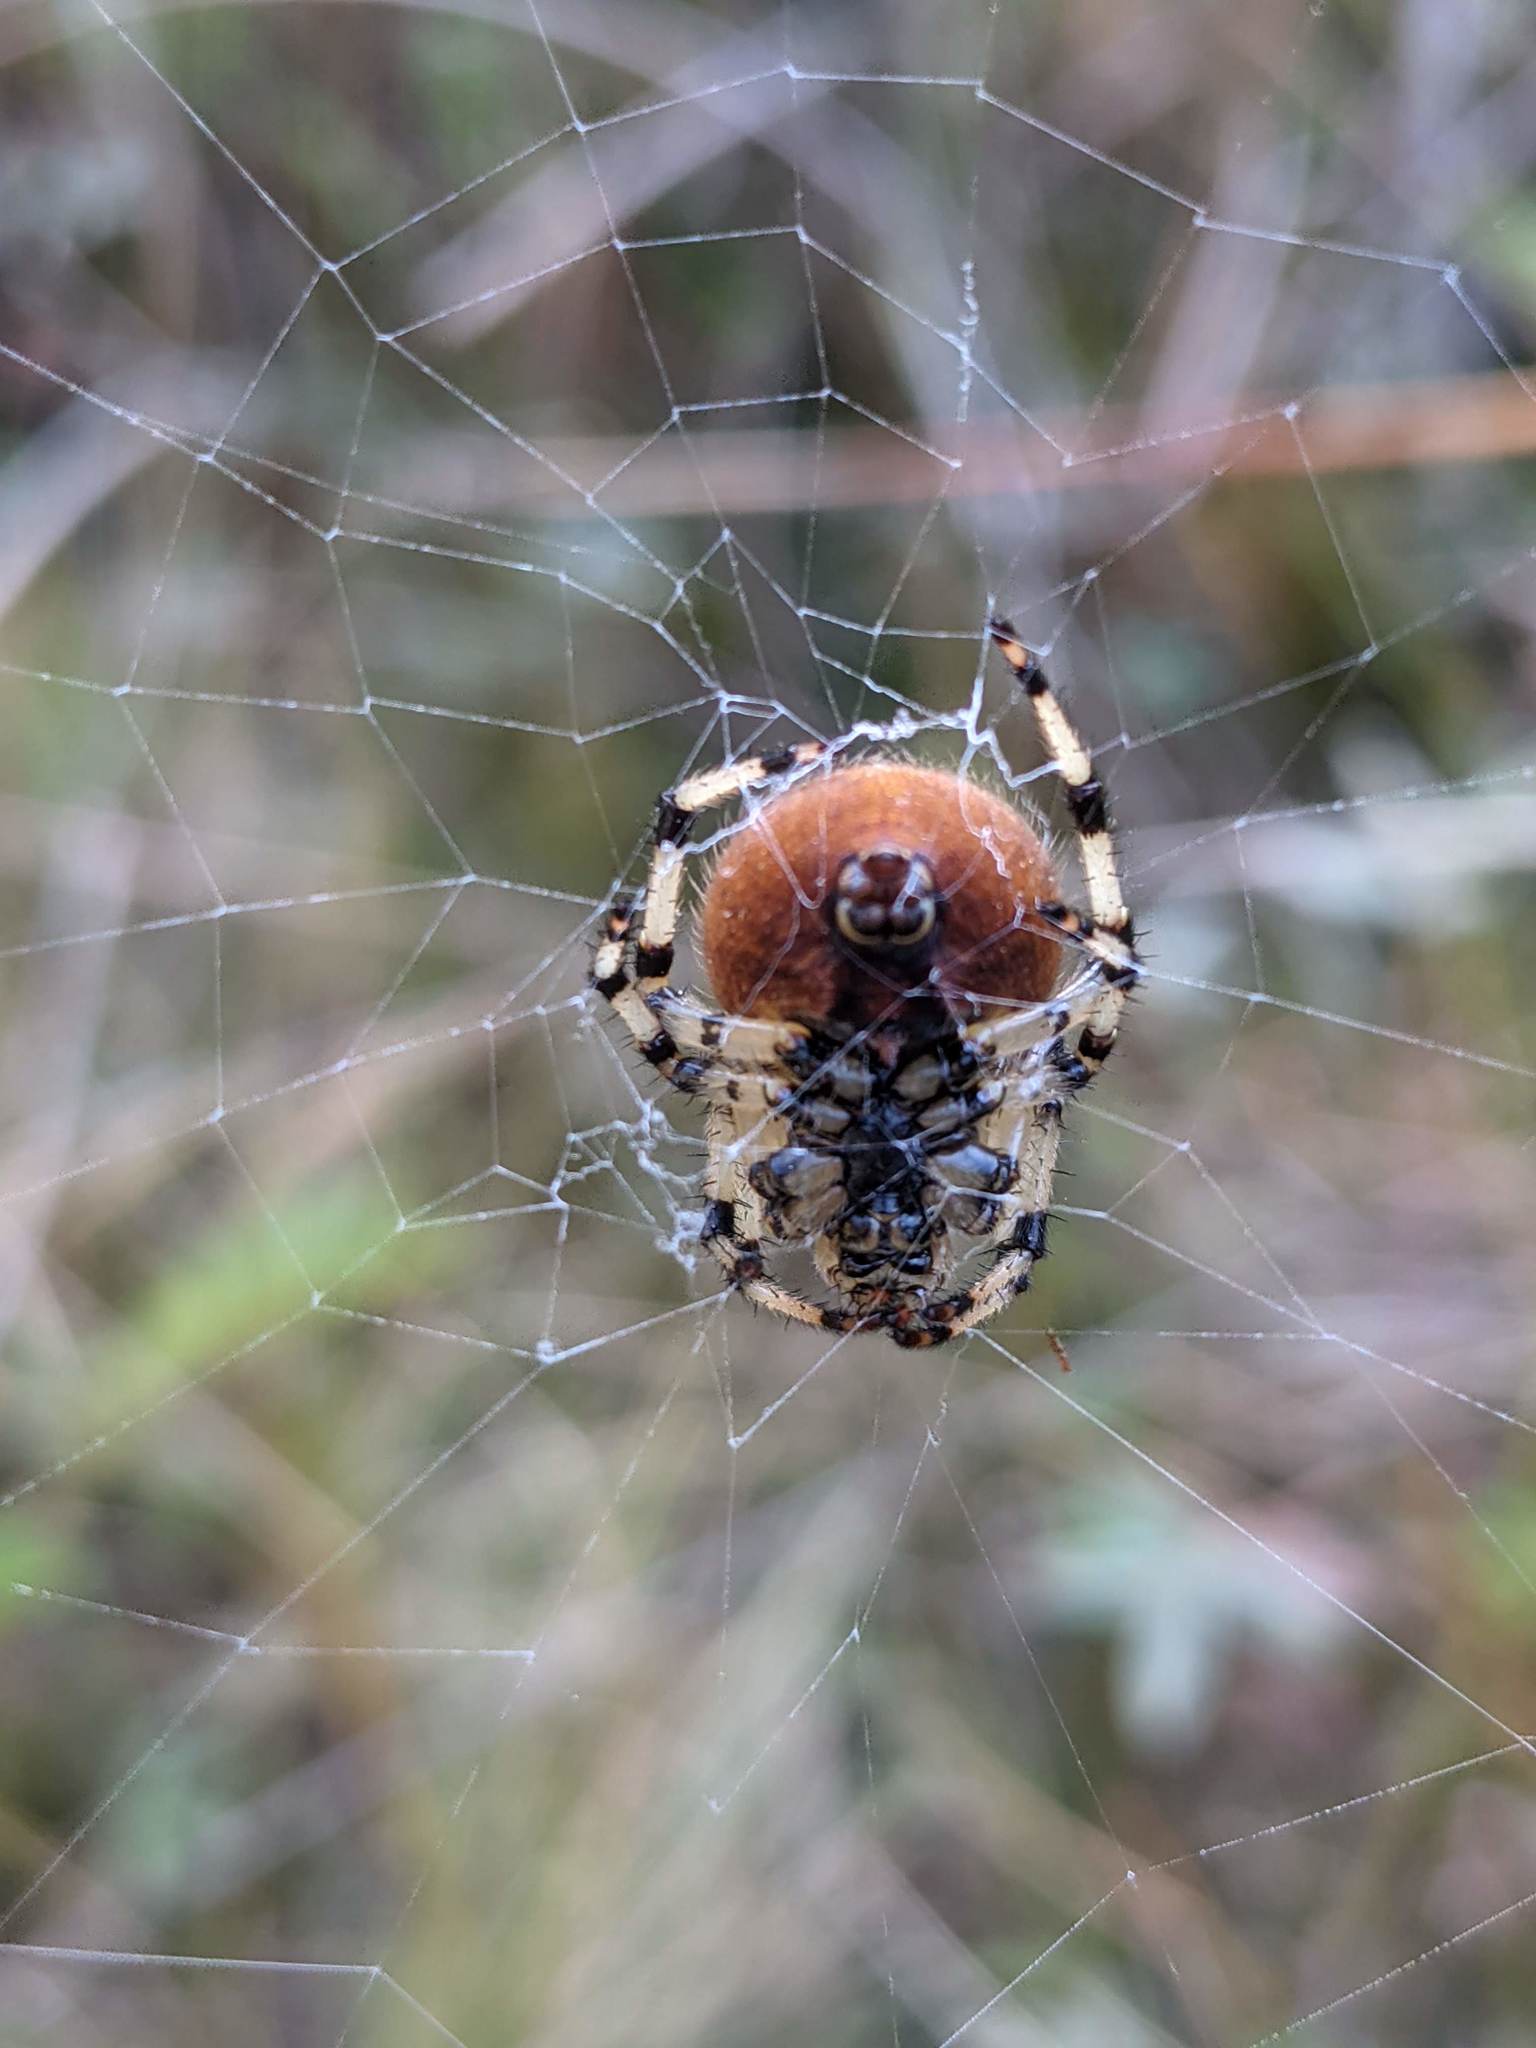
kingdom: Animalia
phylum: Arthropoda
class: Arachnida
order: Araneae
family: Araneidae
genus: Araneus
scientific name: Araneus trifolium
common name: Shamrock orbweaver
